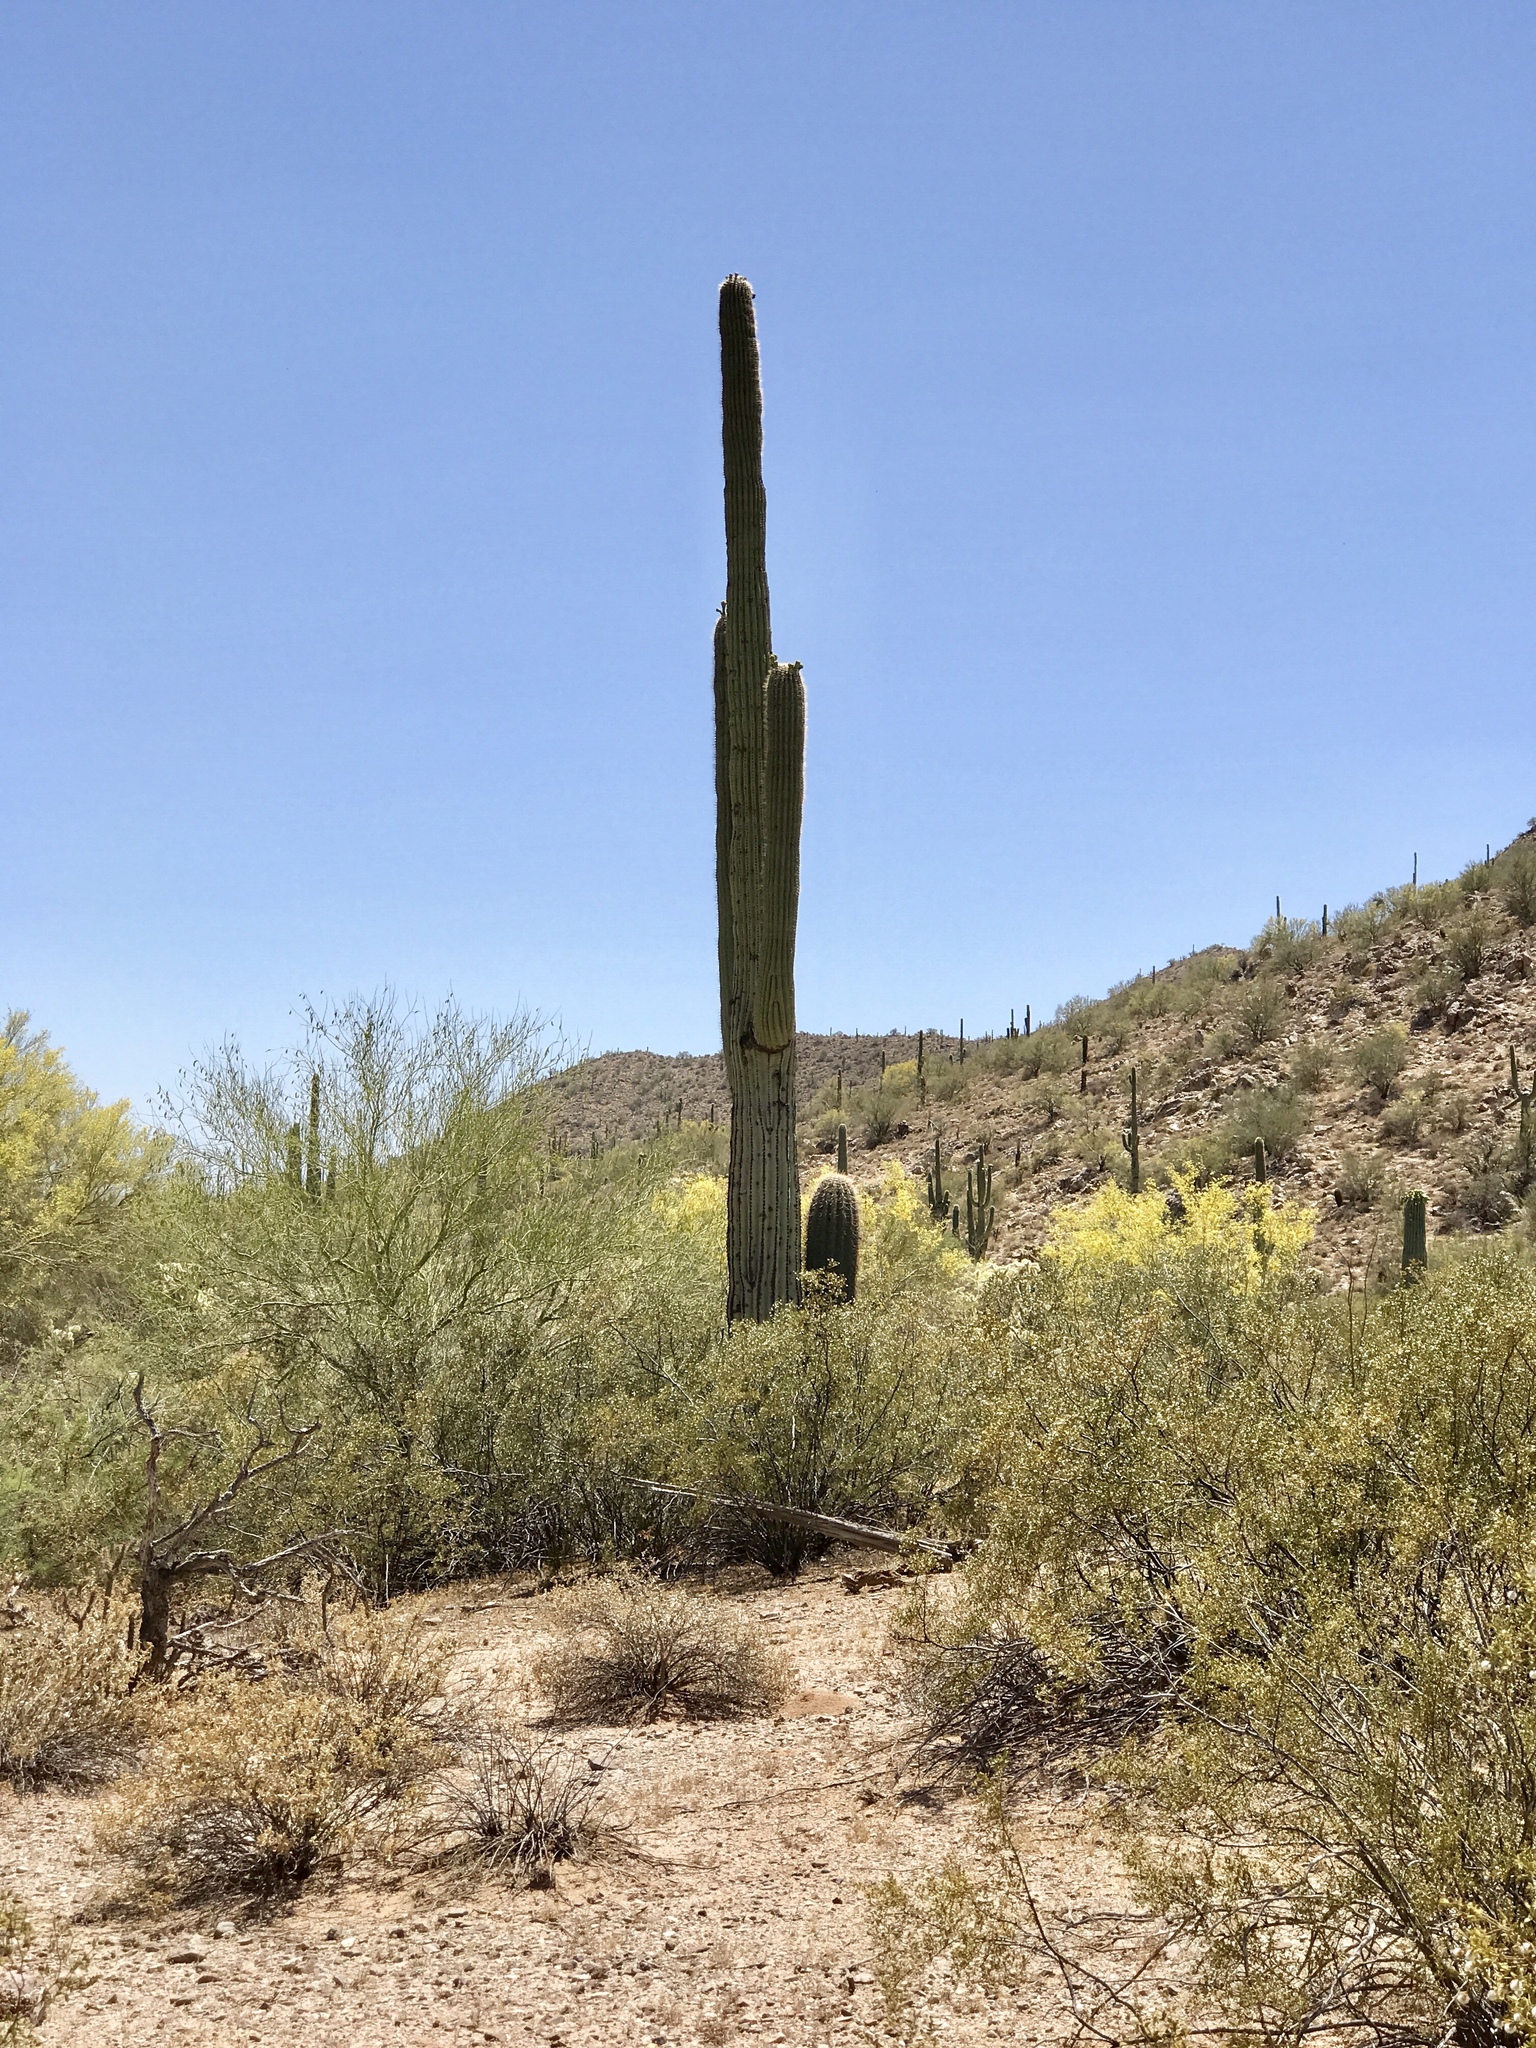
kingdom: Plantae
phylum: Tracheophyta
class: Magnoliopsida
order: Caryophyllales
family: Cactaceae
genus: Carnegiea
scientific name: Carnegiea gigantea
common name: Saguaro
